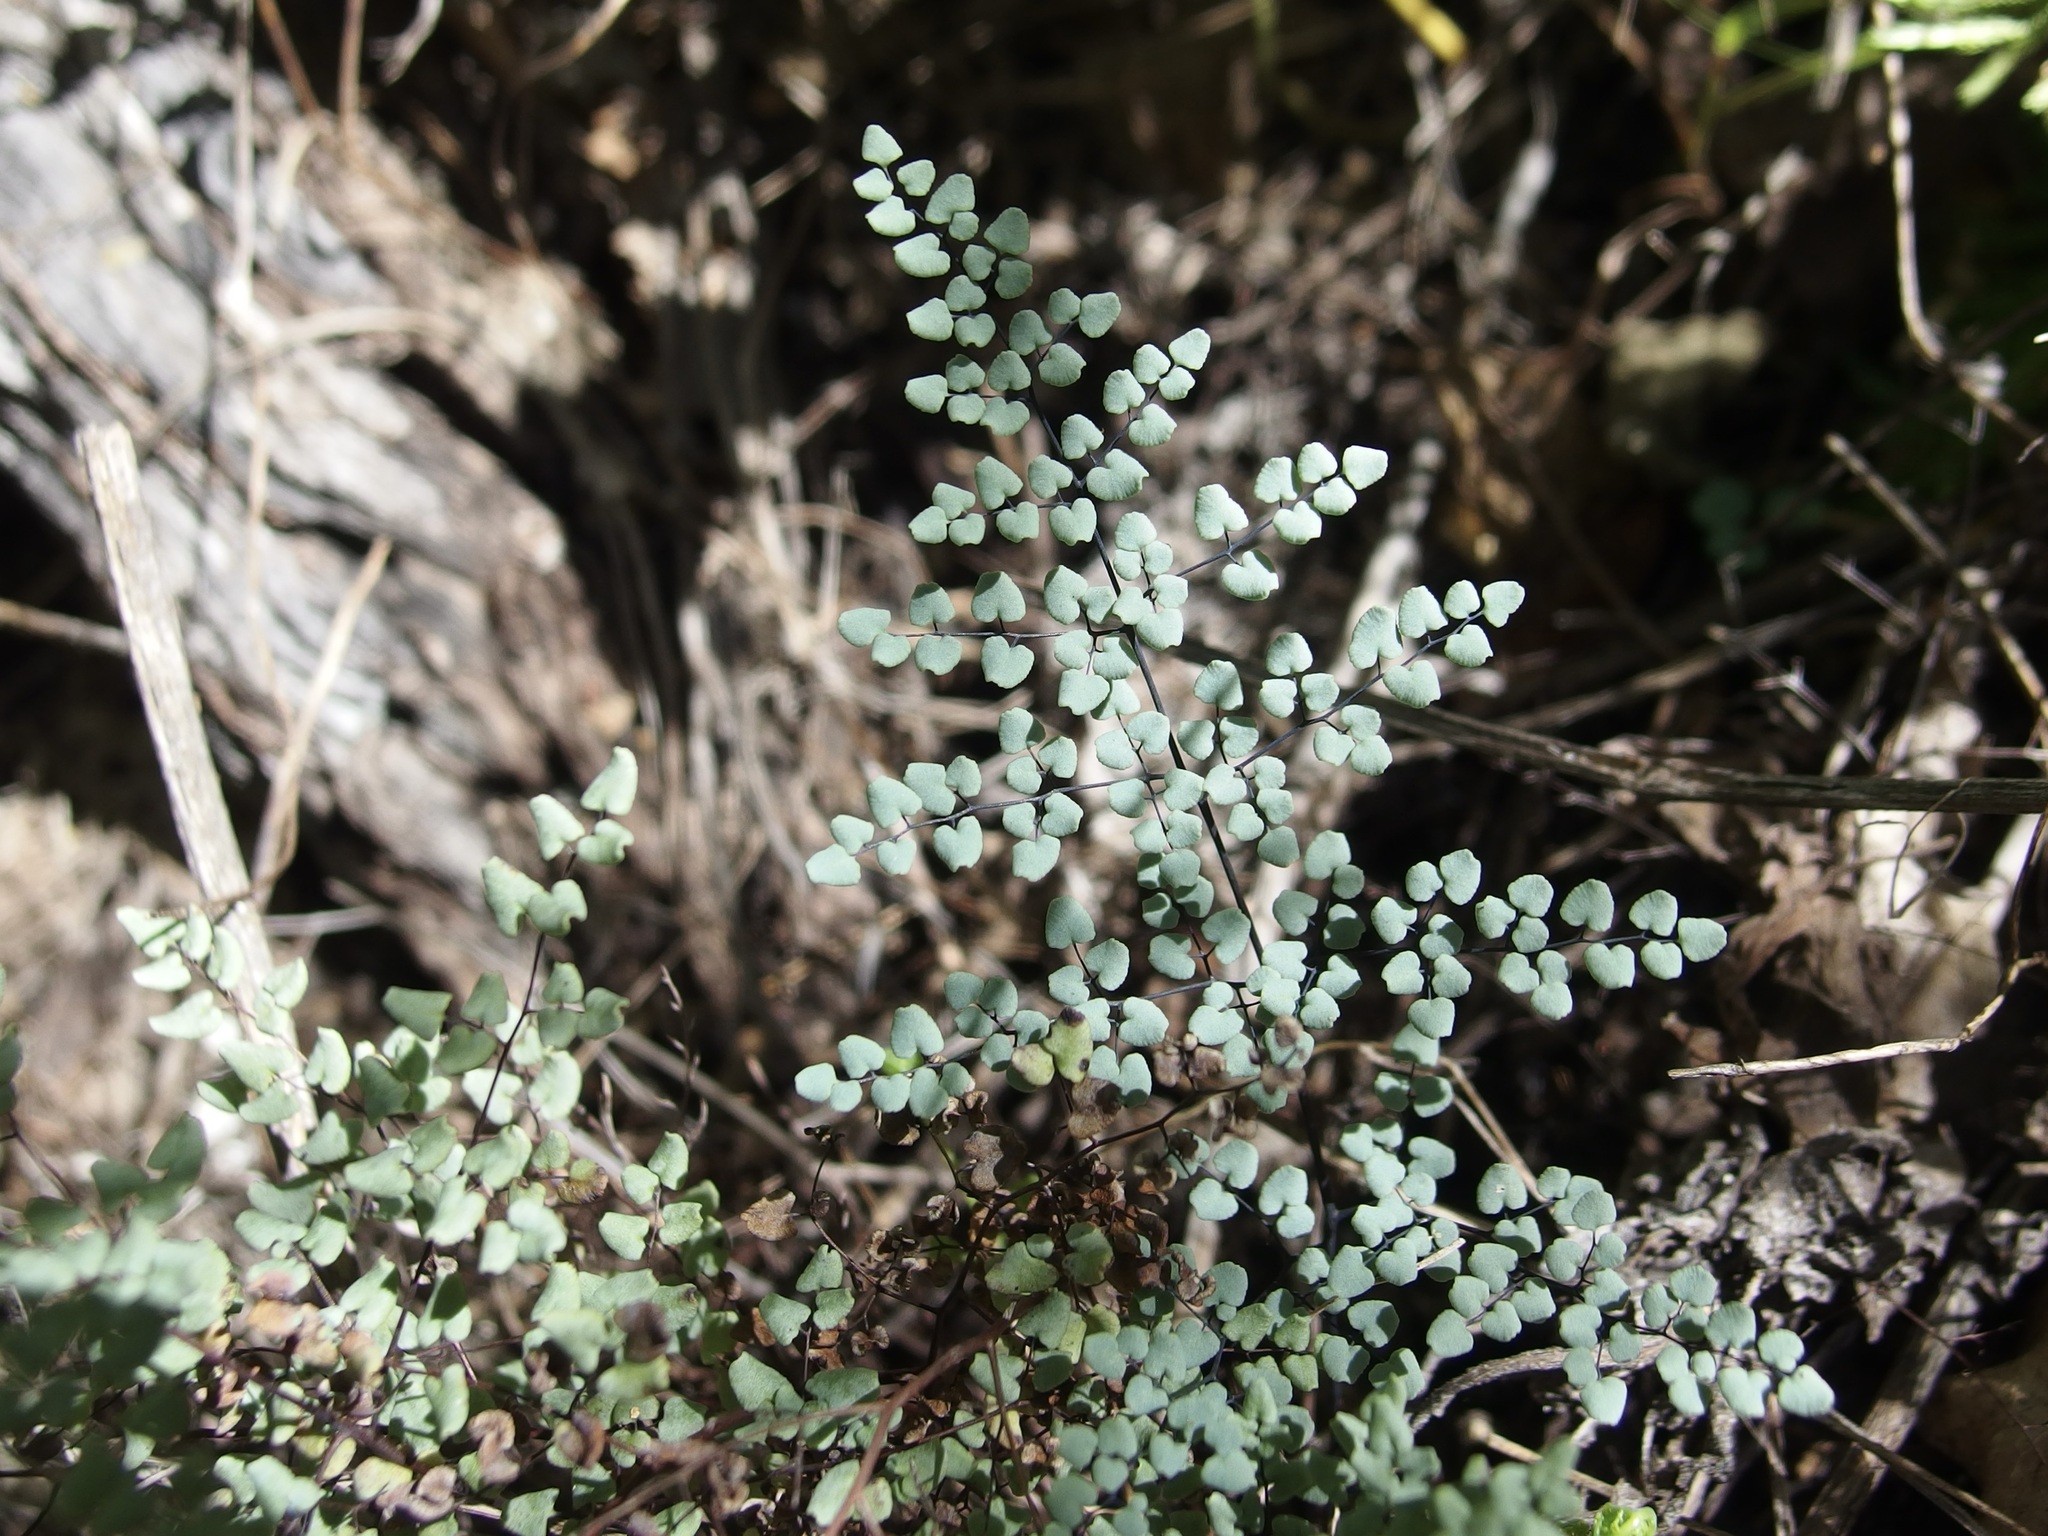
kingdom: Plantae
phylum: Tracheophyta
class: Polypodiopsida
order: Polypodiales
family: Pteridaceae
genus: Argyrochosma
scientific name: Argyrochosma microphylla
